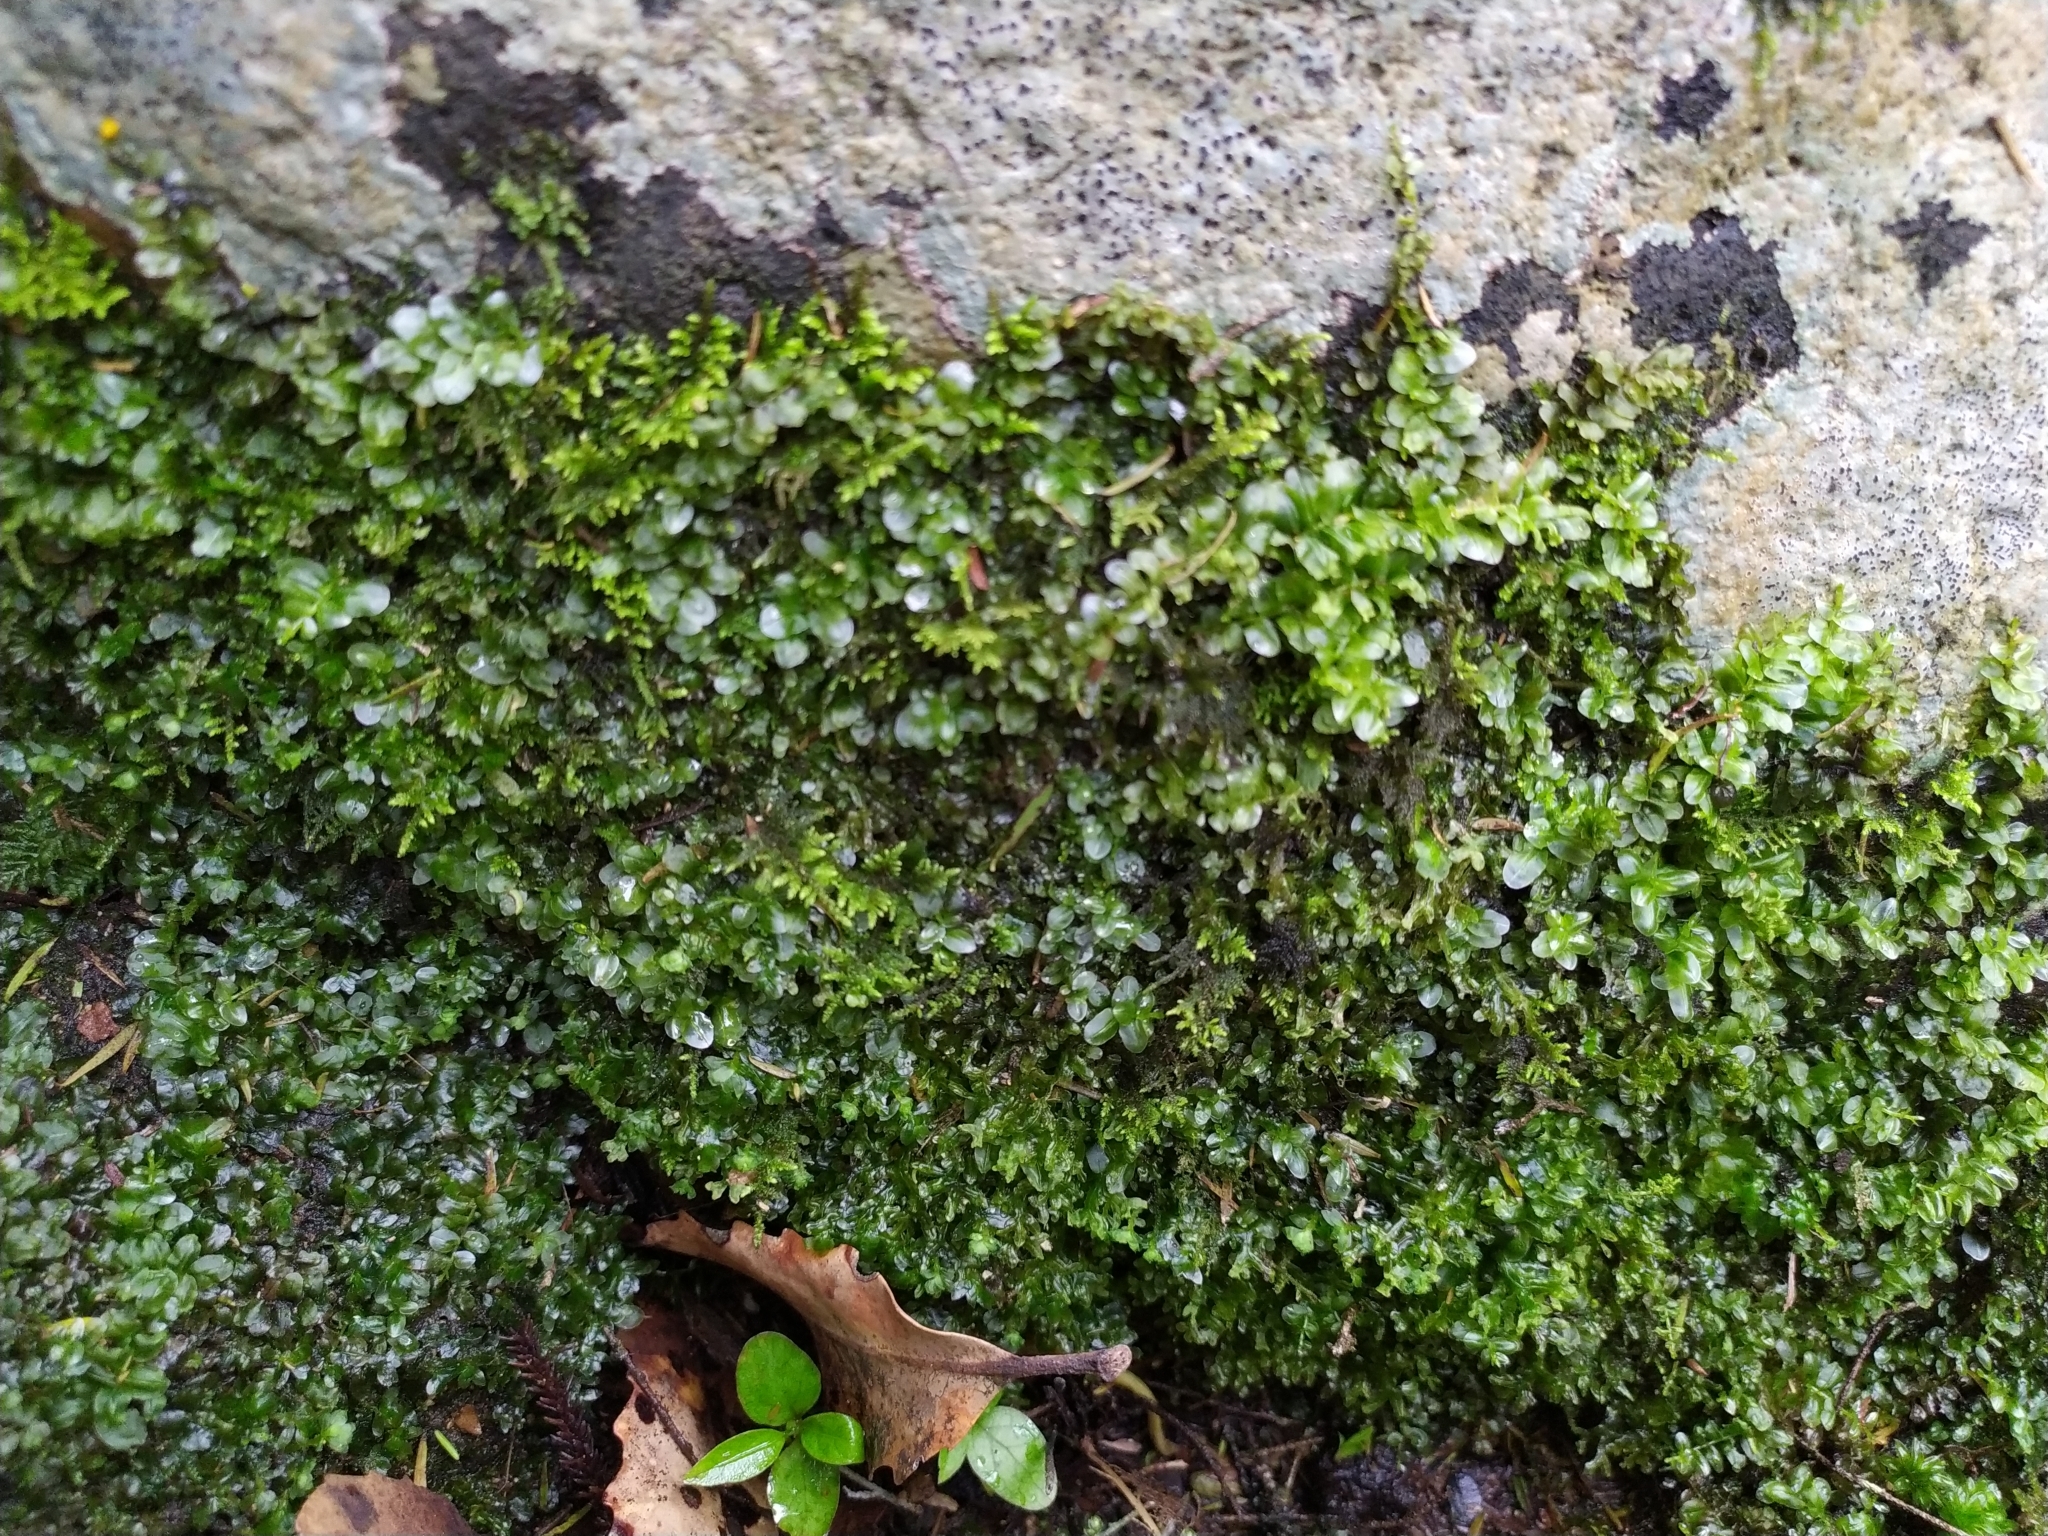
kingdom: Plantae
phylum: Bryophyta
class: Bryopsida
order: Bryales
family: Mniaceae
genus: Plagiomnium
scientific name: Plagiomnium novae-zealandiae
